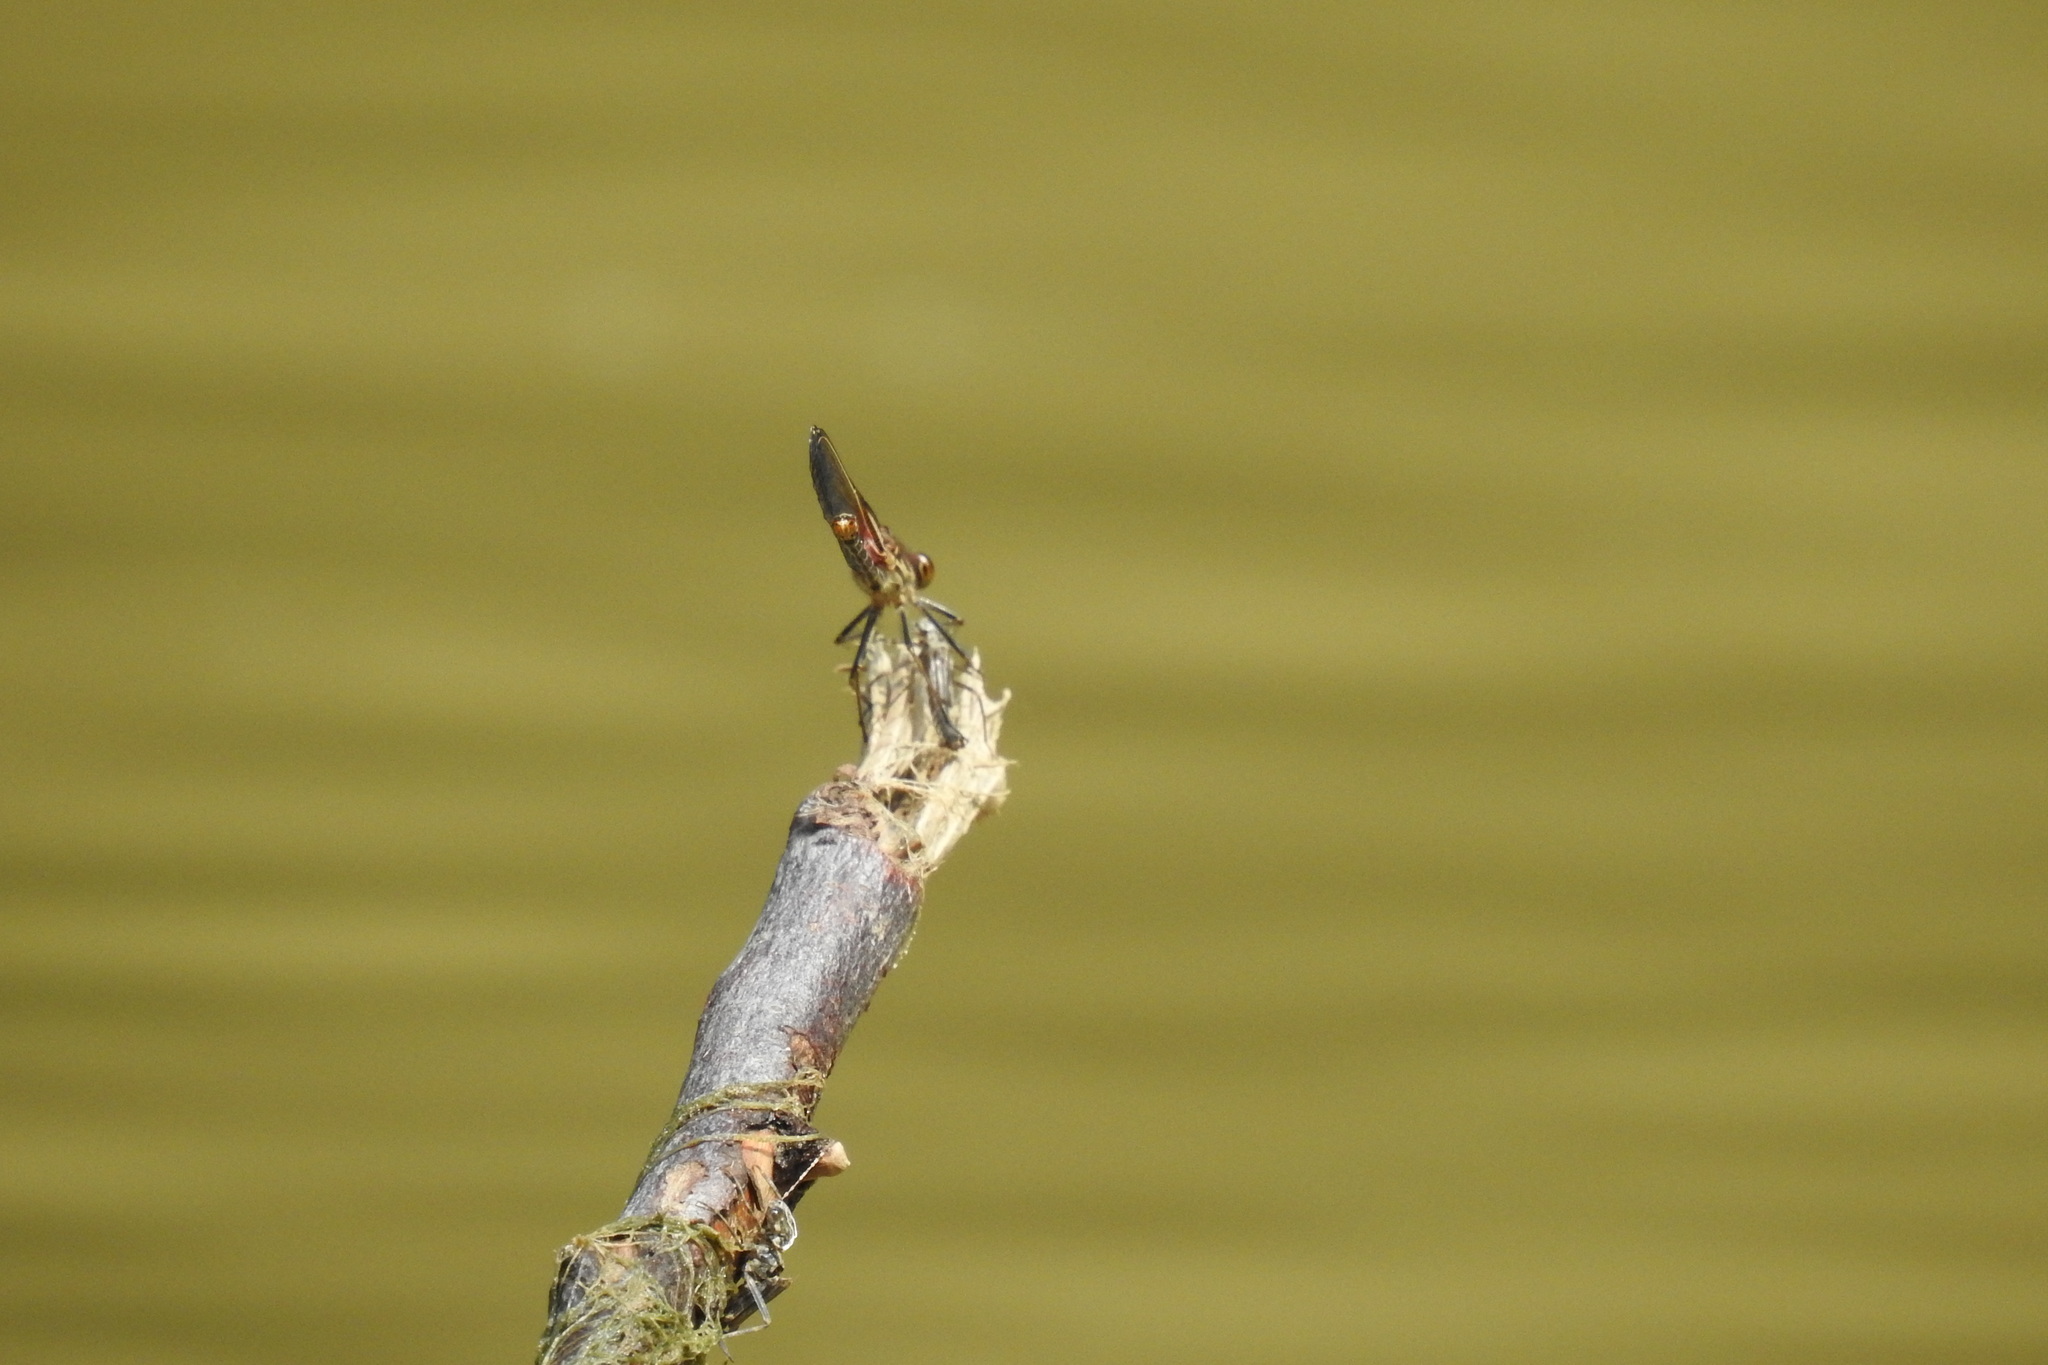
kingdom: Animalia
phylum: Arthropoda
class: Insecta
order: Odonata
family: Calopterygidae
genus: Hetaerina
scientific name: Hetaerina americana
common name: American rubyspot
